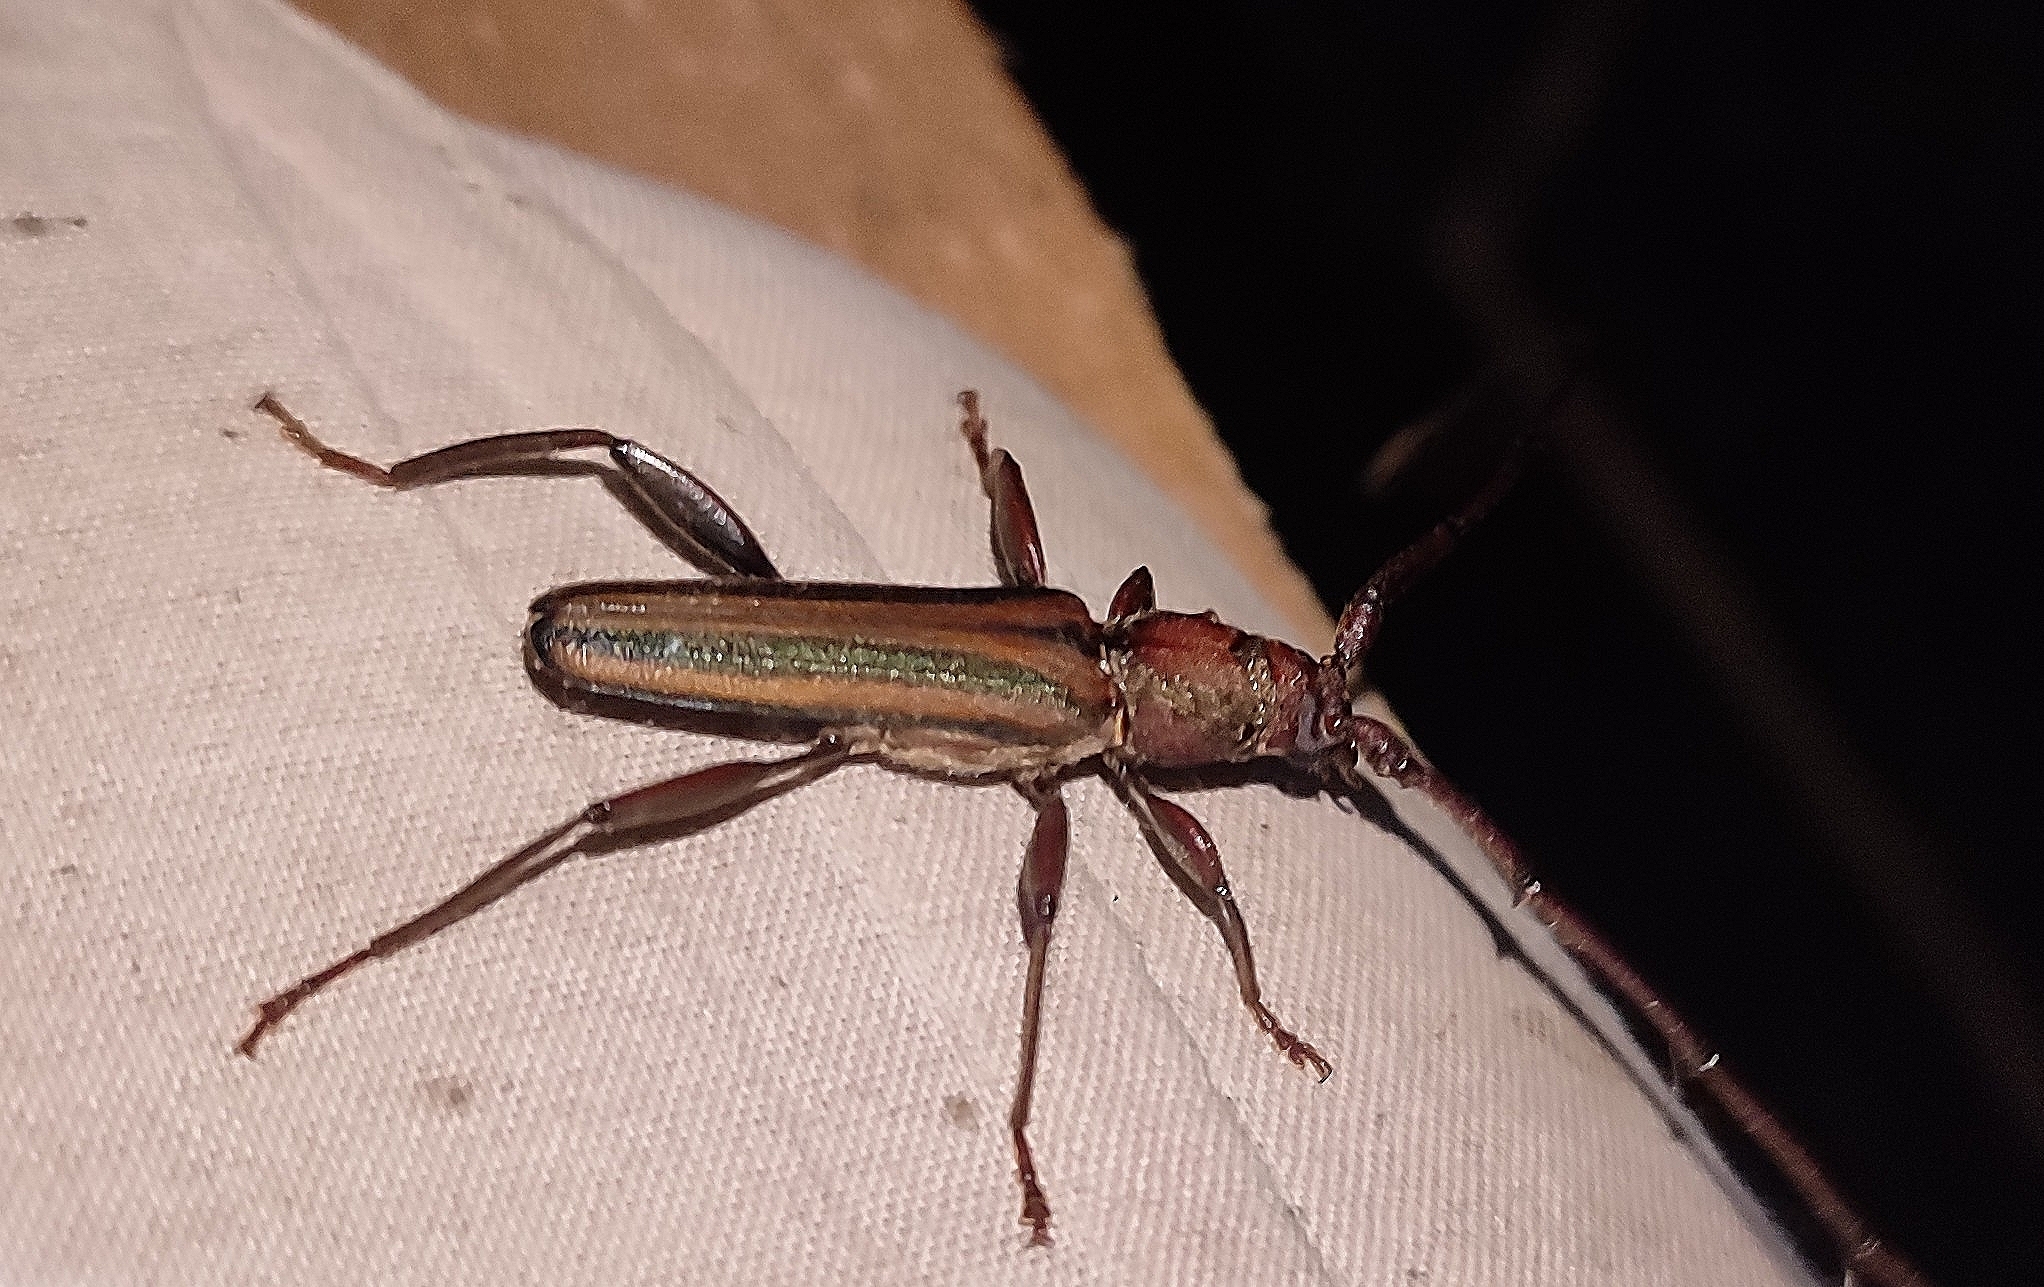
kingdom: Animalia
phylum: Arthropoda
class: Insecta
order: Coleoptera
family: Cerambycidae
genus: Xystrocera
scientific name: Xystrocera globosa
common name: Peach-tree longhorn
